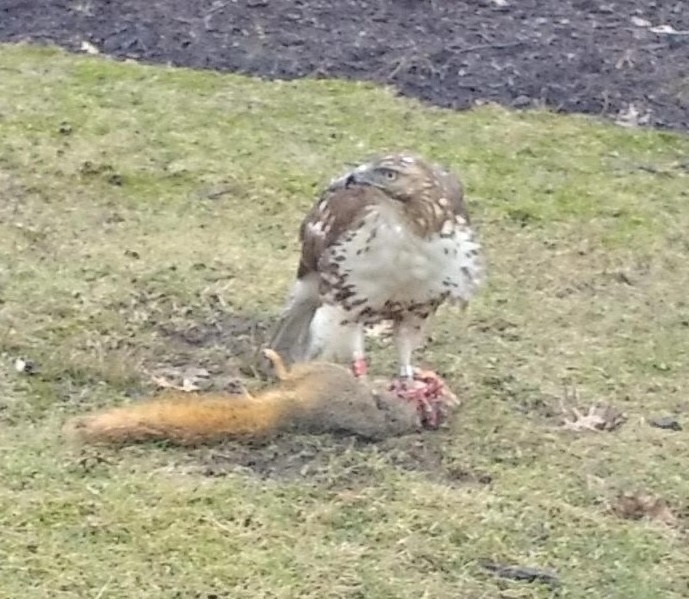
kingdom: Animalia
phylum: Chordata
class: Aves
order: Accipitriformes
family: Accipitridae
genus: Buteo
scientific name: Buteo jamaicensis
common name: Red-tailed hawk
